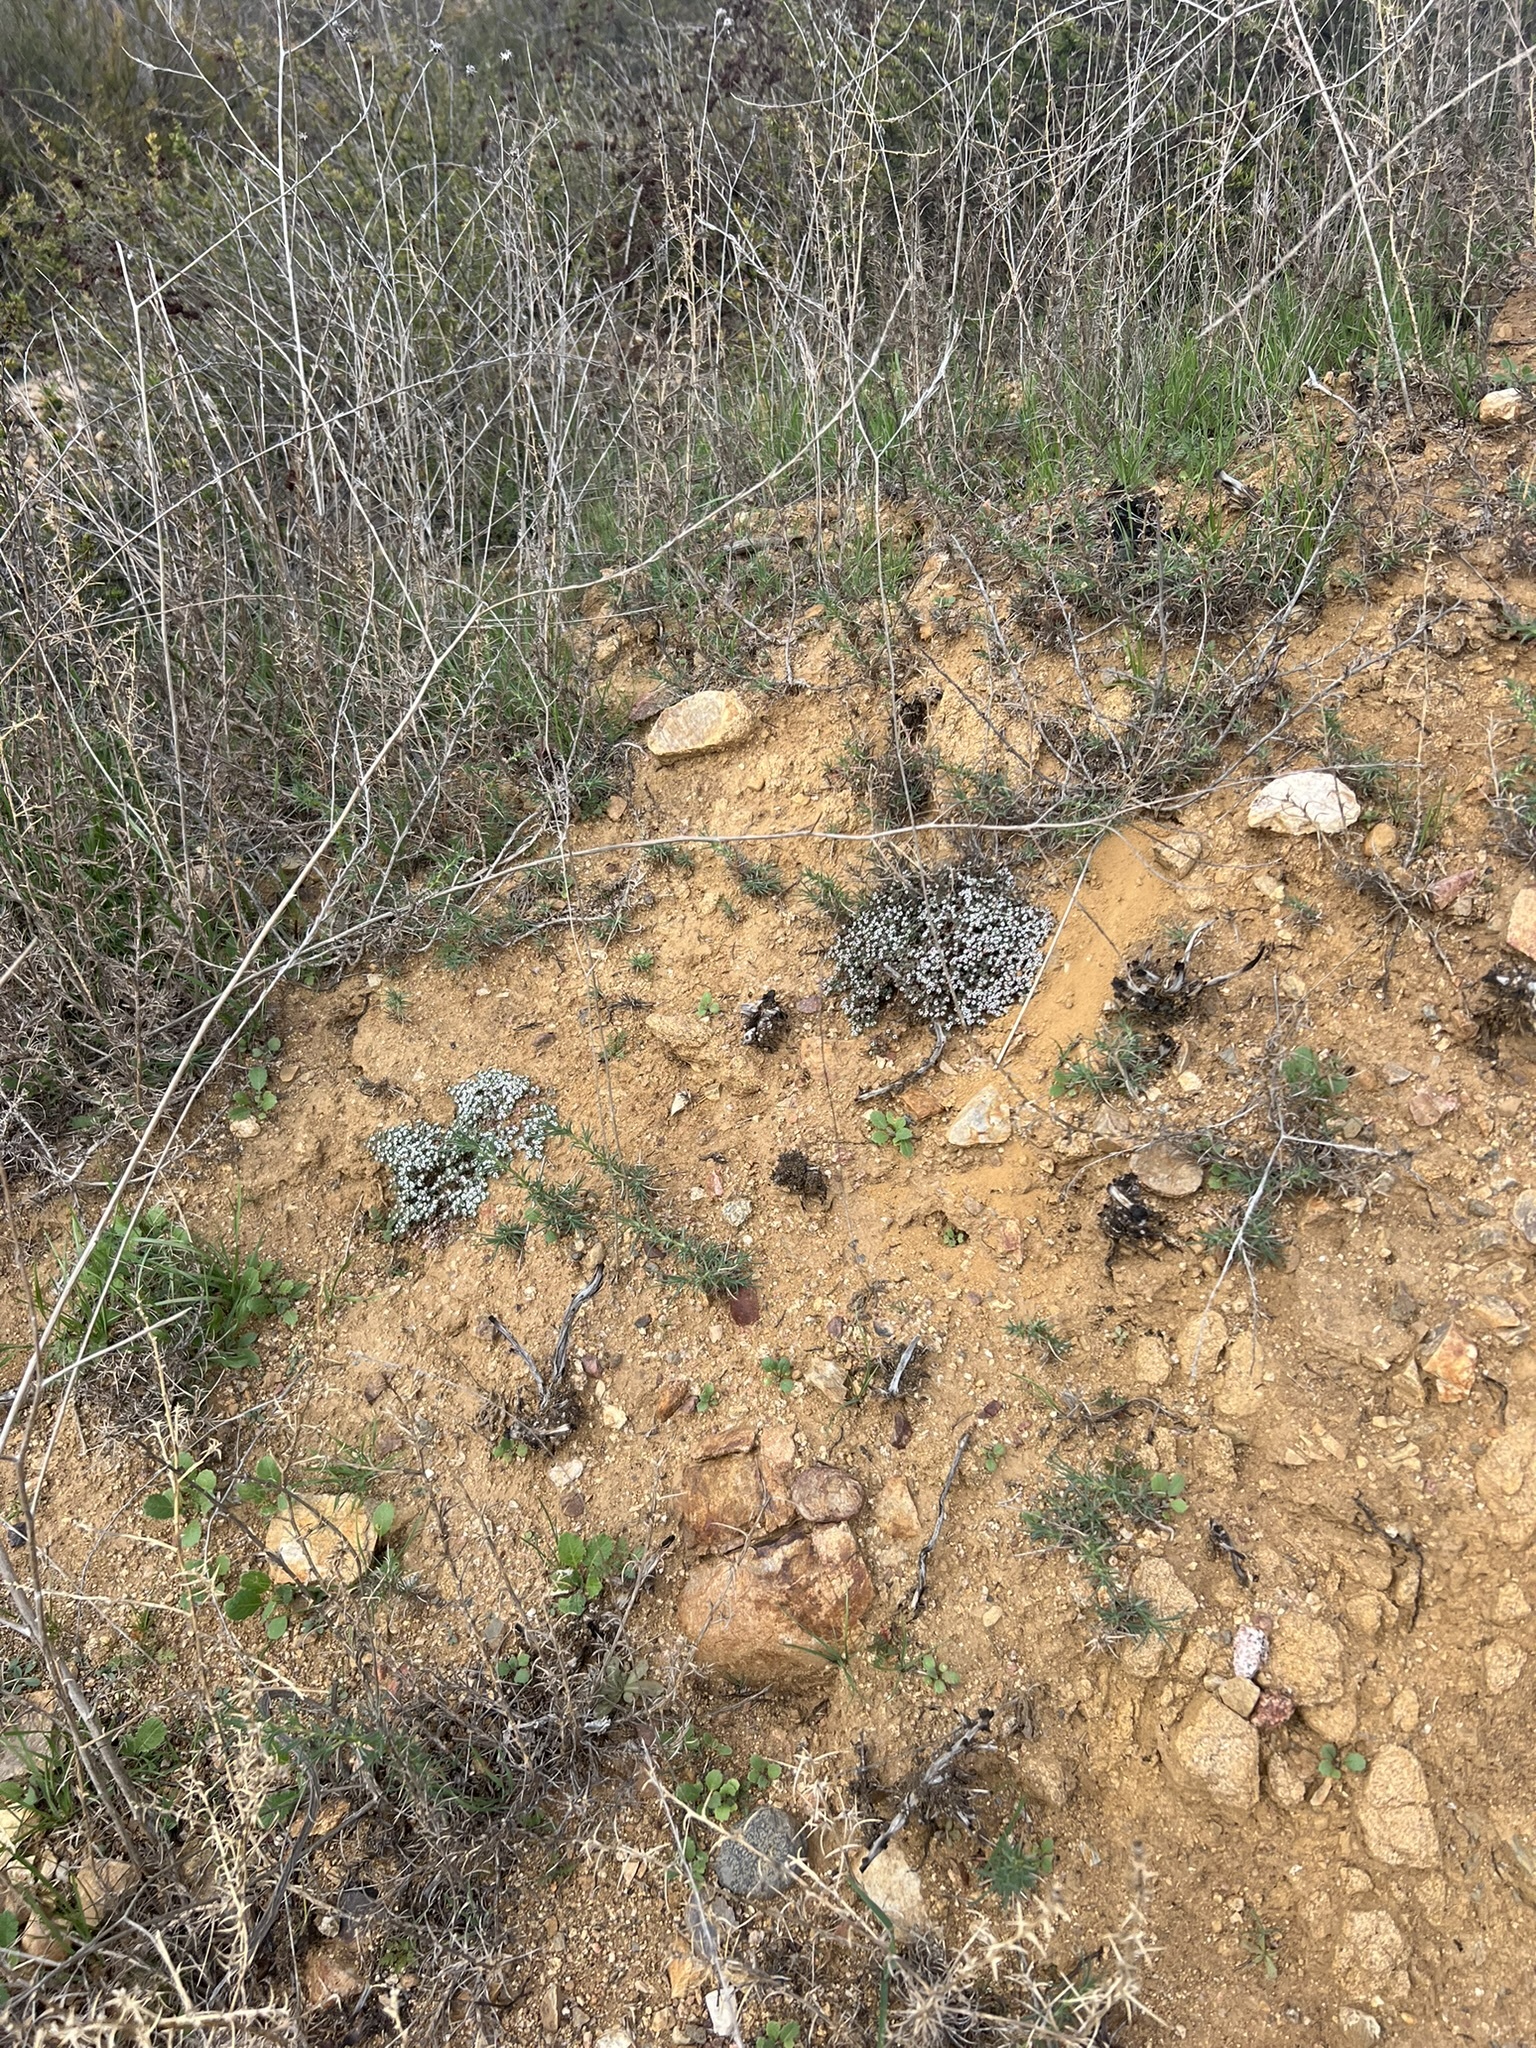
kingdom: Plantae
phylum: Tracheophyta
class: Magnoliopsida
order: Malpighiales
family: Euphorbiaceae
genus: Euphorbia
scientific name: Euphorbia polycarpa
